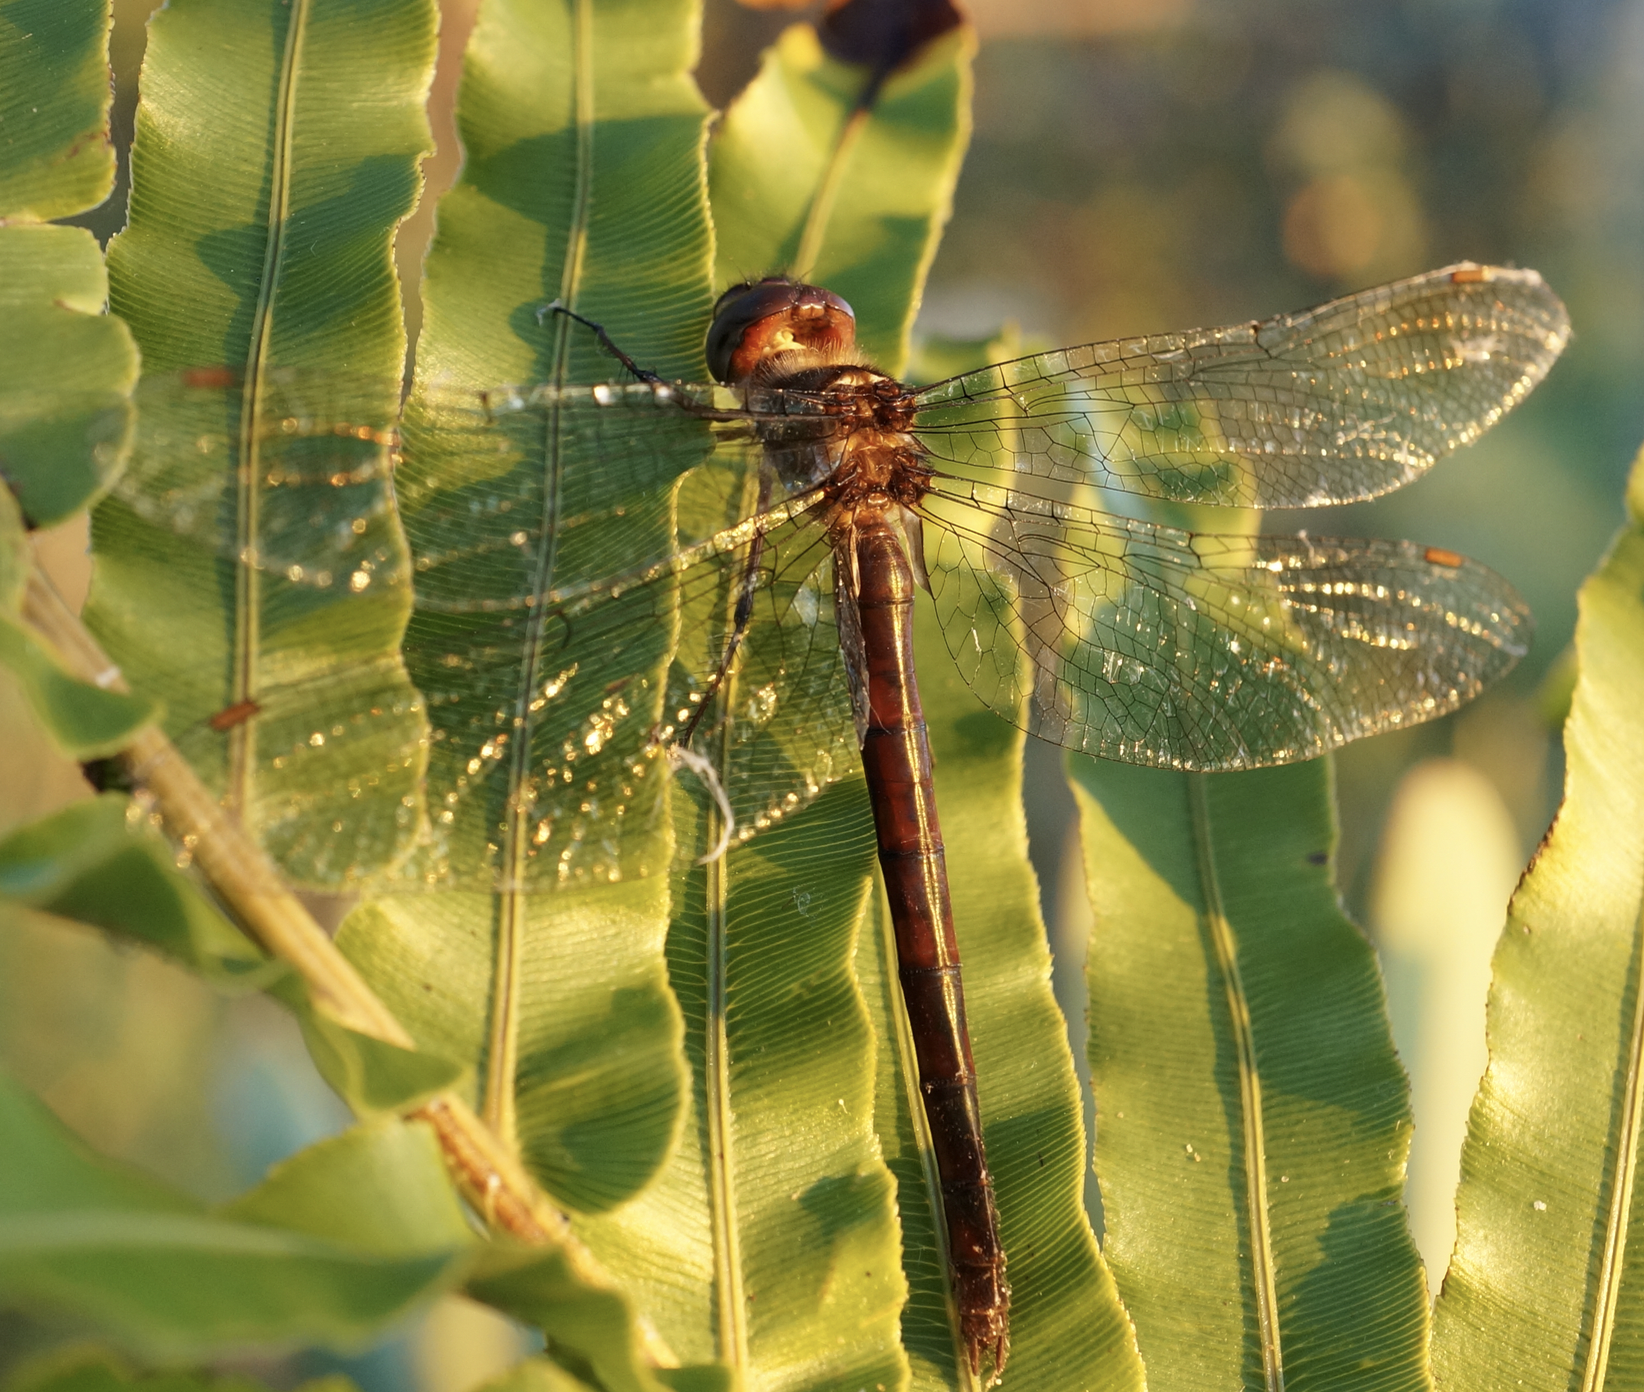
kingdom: Animalia
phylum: Arthropoda
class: Insecta
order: Odonata
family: Corduliidae
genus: Antipodochlora
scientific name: Antipodochlora braueri
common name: Dusk dragonfly
